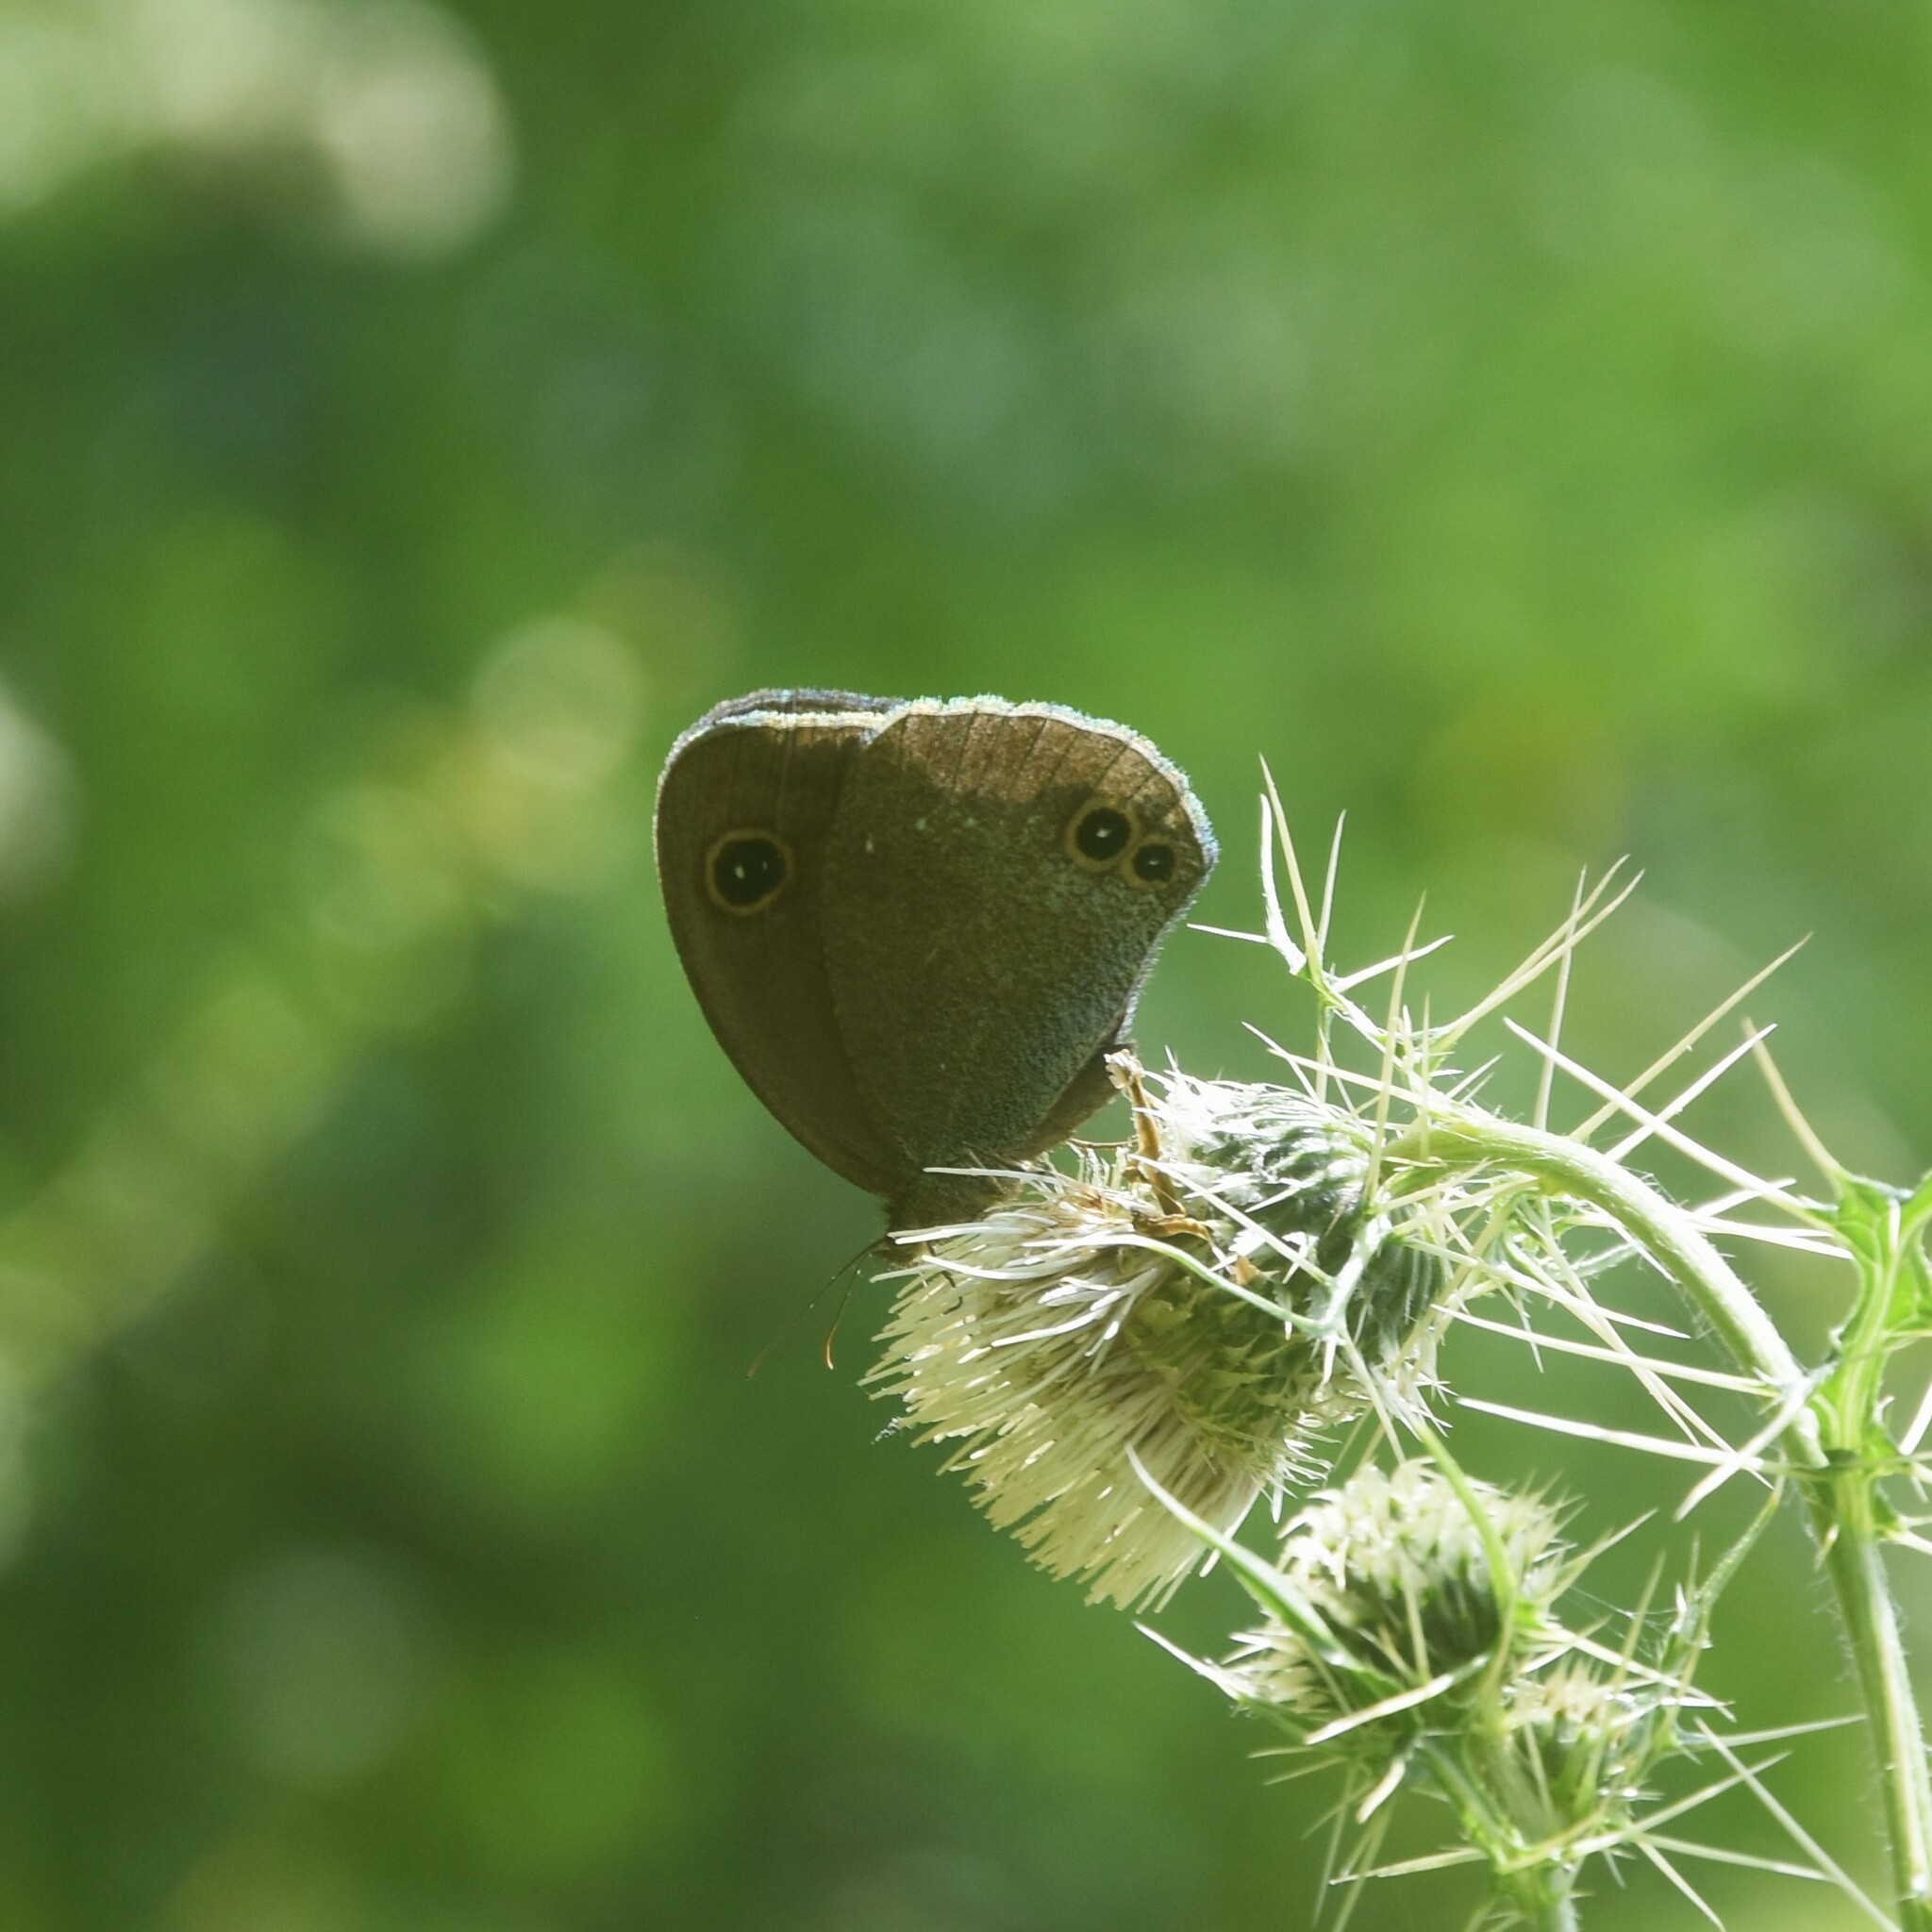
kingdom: Animalia
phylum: Arthropoda
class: Insecta
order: Lepidoptera
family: Nymphalidae
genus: Callerebia
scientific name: Callerebia scanda
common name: Pallid argus
